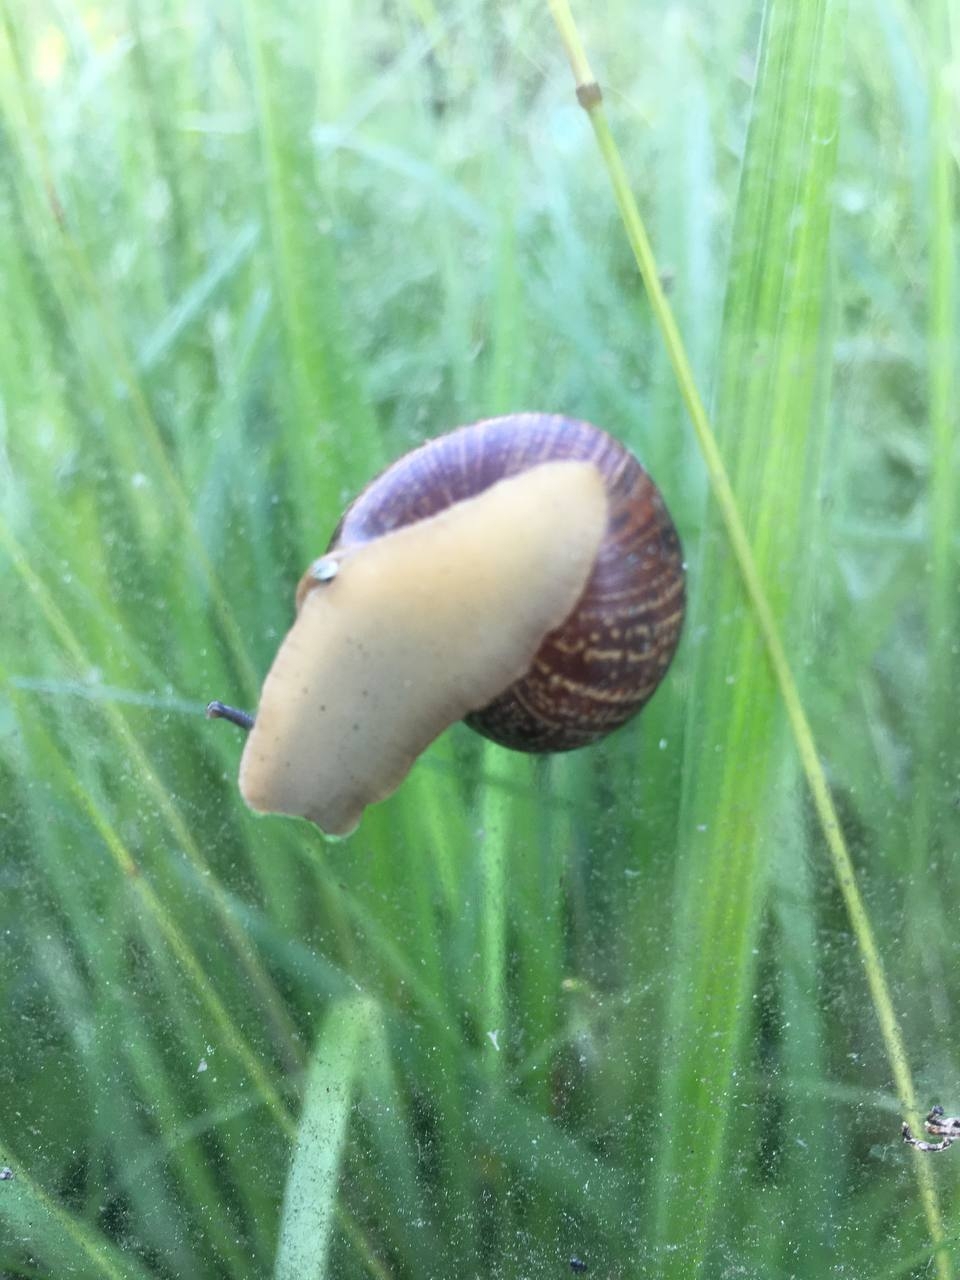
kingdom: Animalia
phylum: Mollusca
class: Gastropoda
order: Stylommatophora
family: Helicidae
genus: Arianta
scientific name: Arianta arbustorum
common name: Copse snail
